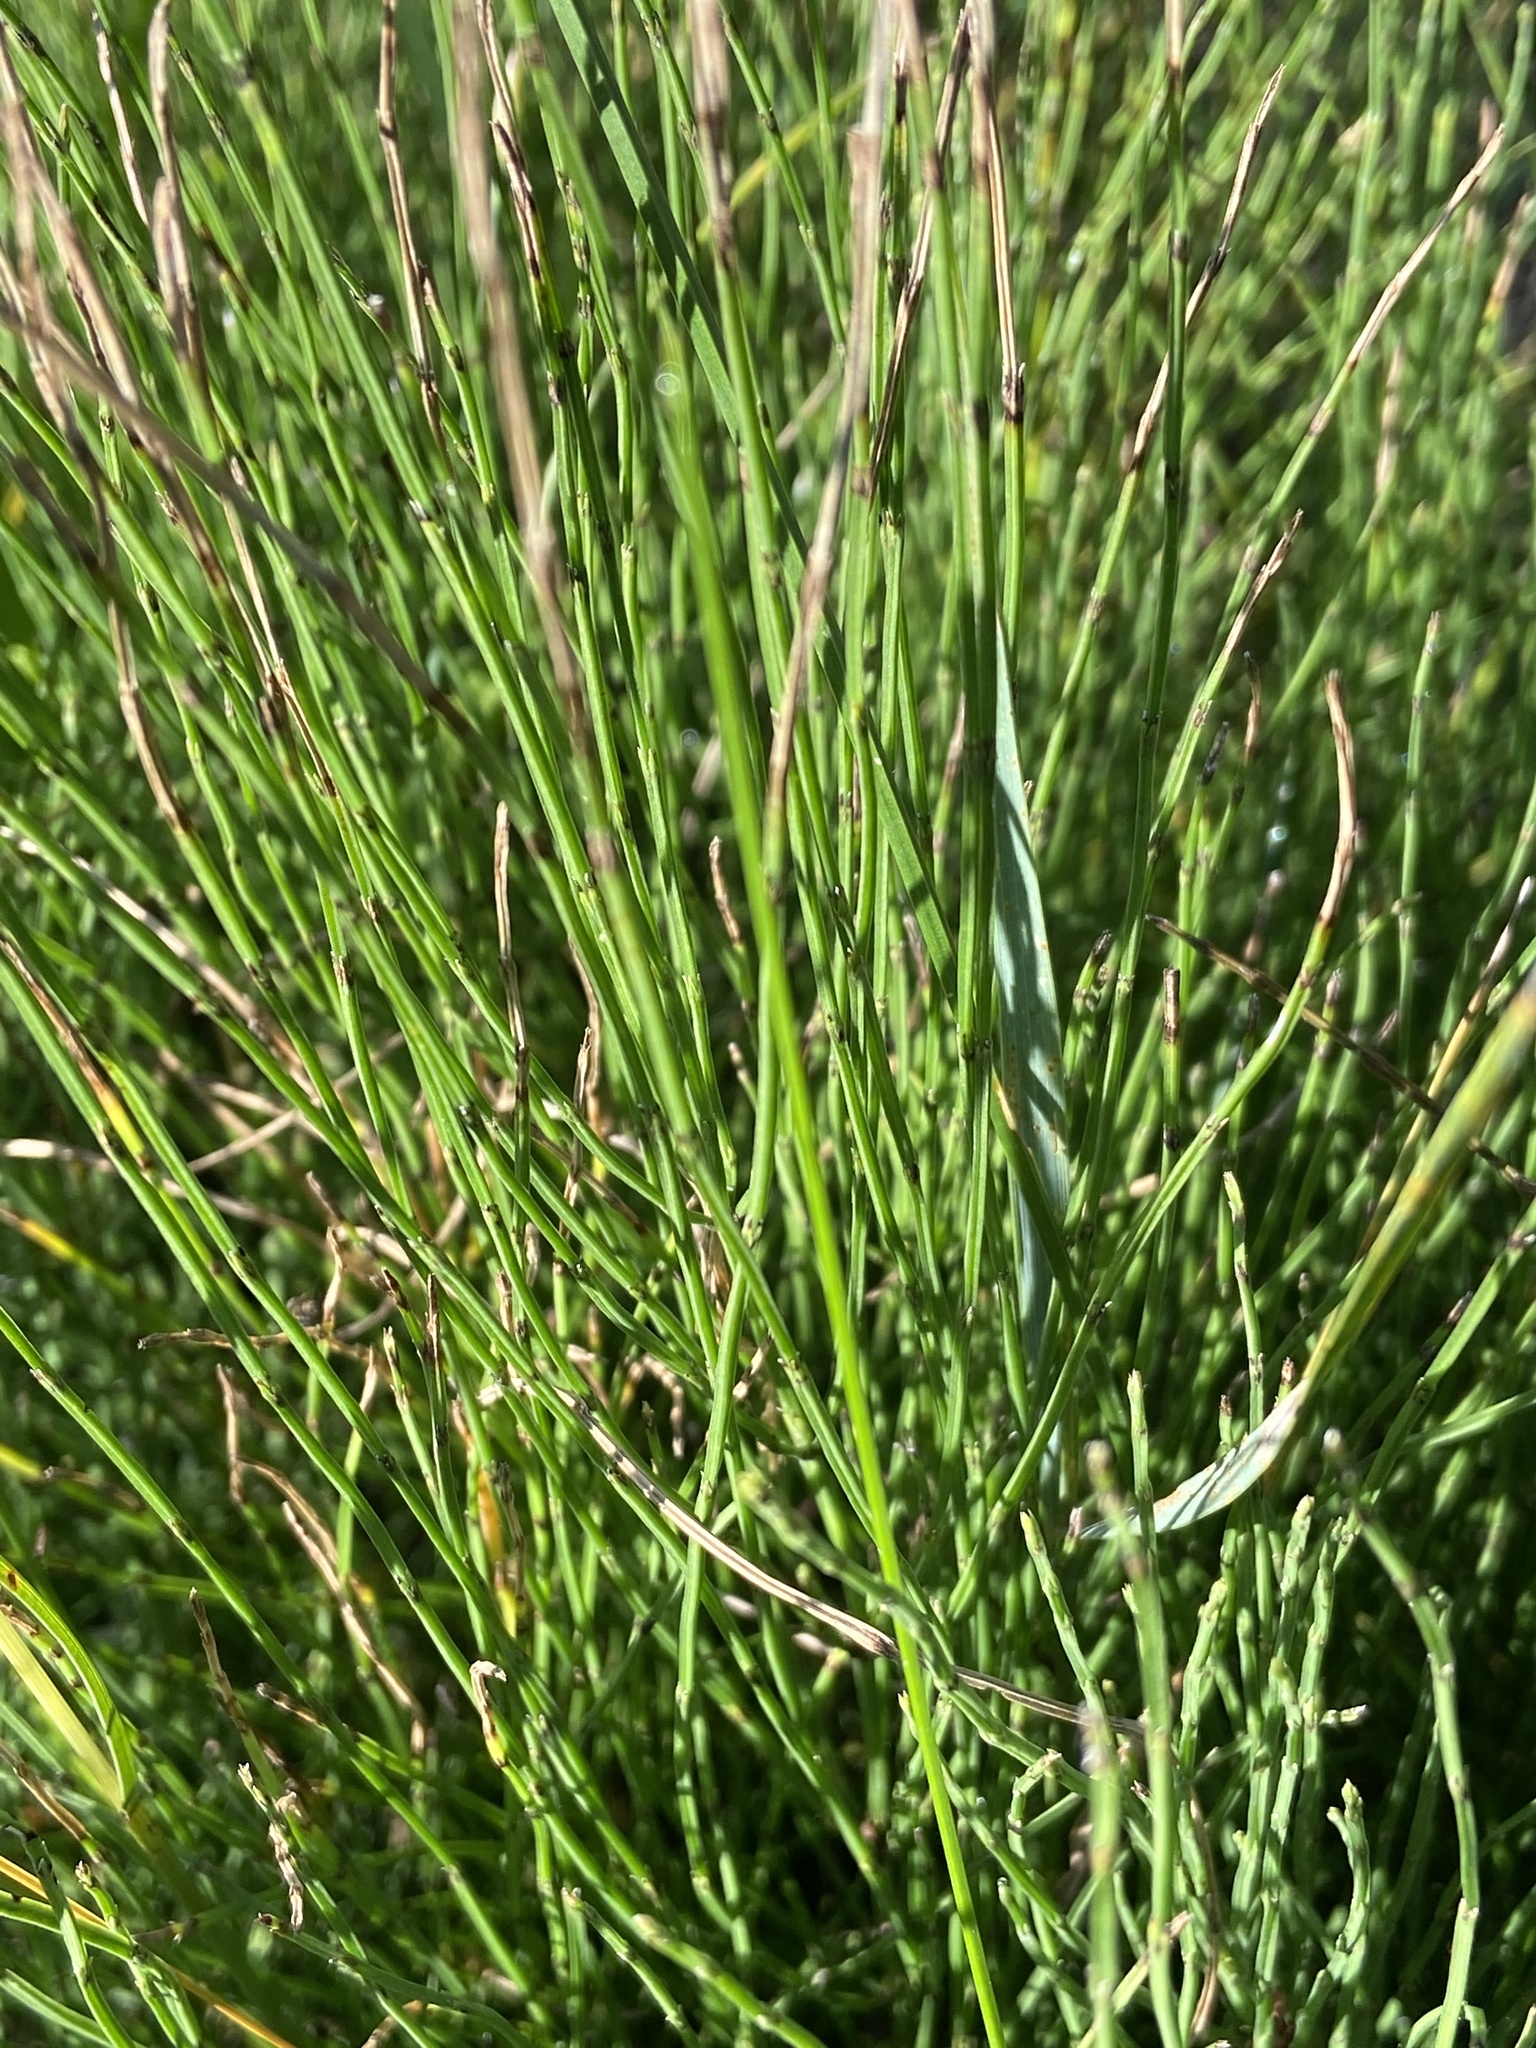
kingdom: Plantae
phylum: Tracheophyta
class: Polypodiopsida
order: Equisetales
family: Equisetaceae
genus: Equisetum
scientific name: Equisetum arvense
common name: Field horsetail
